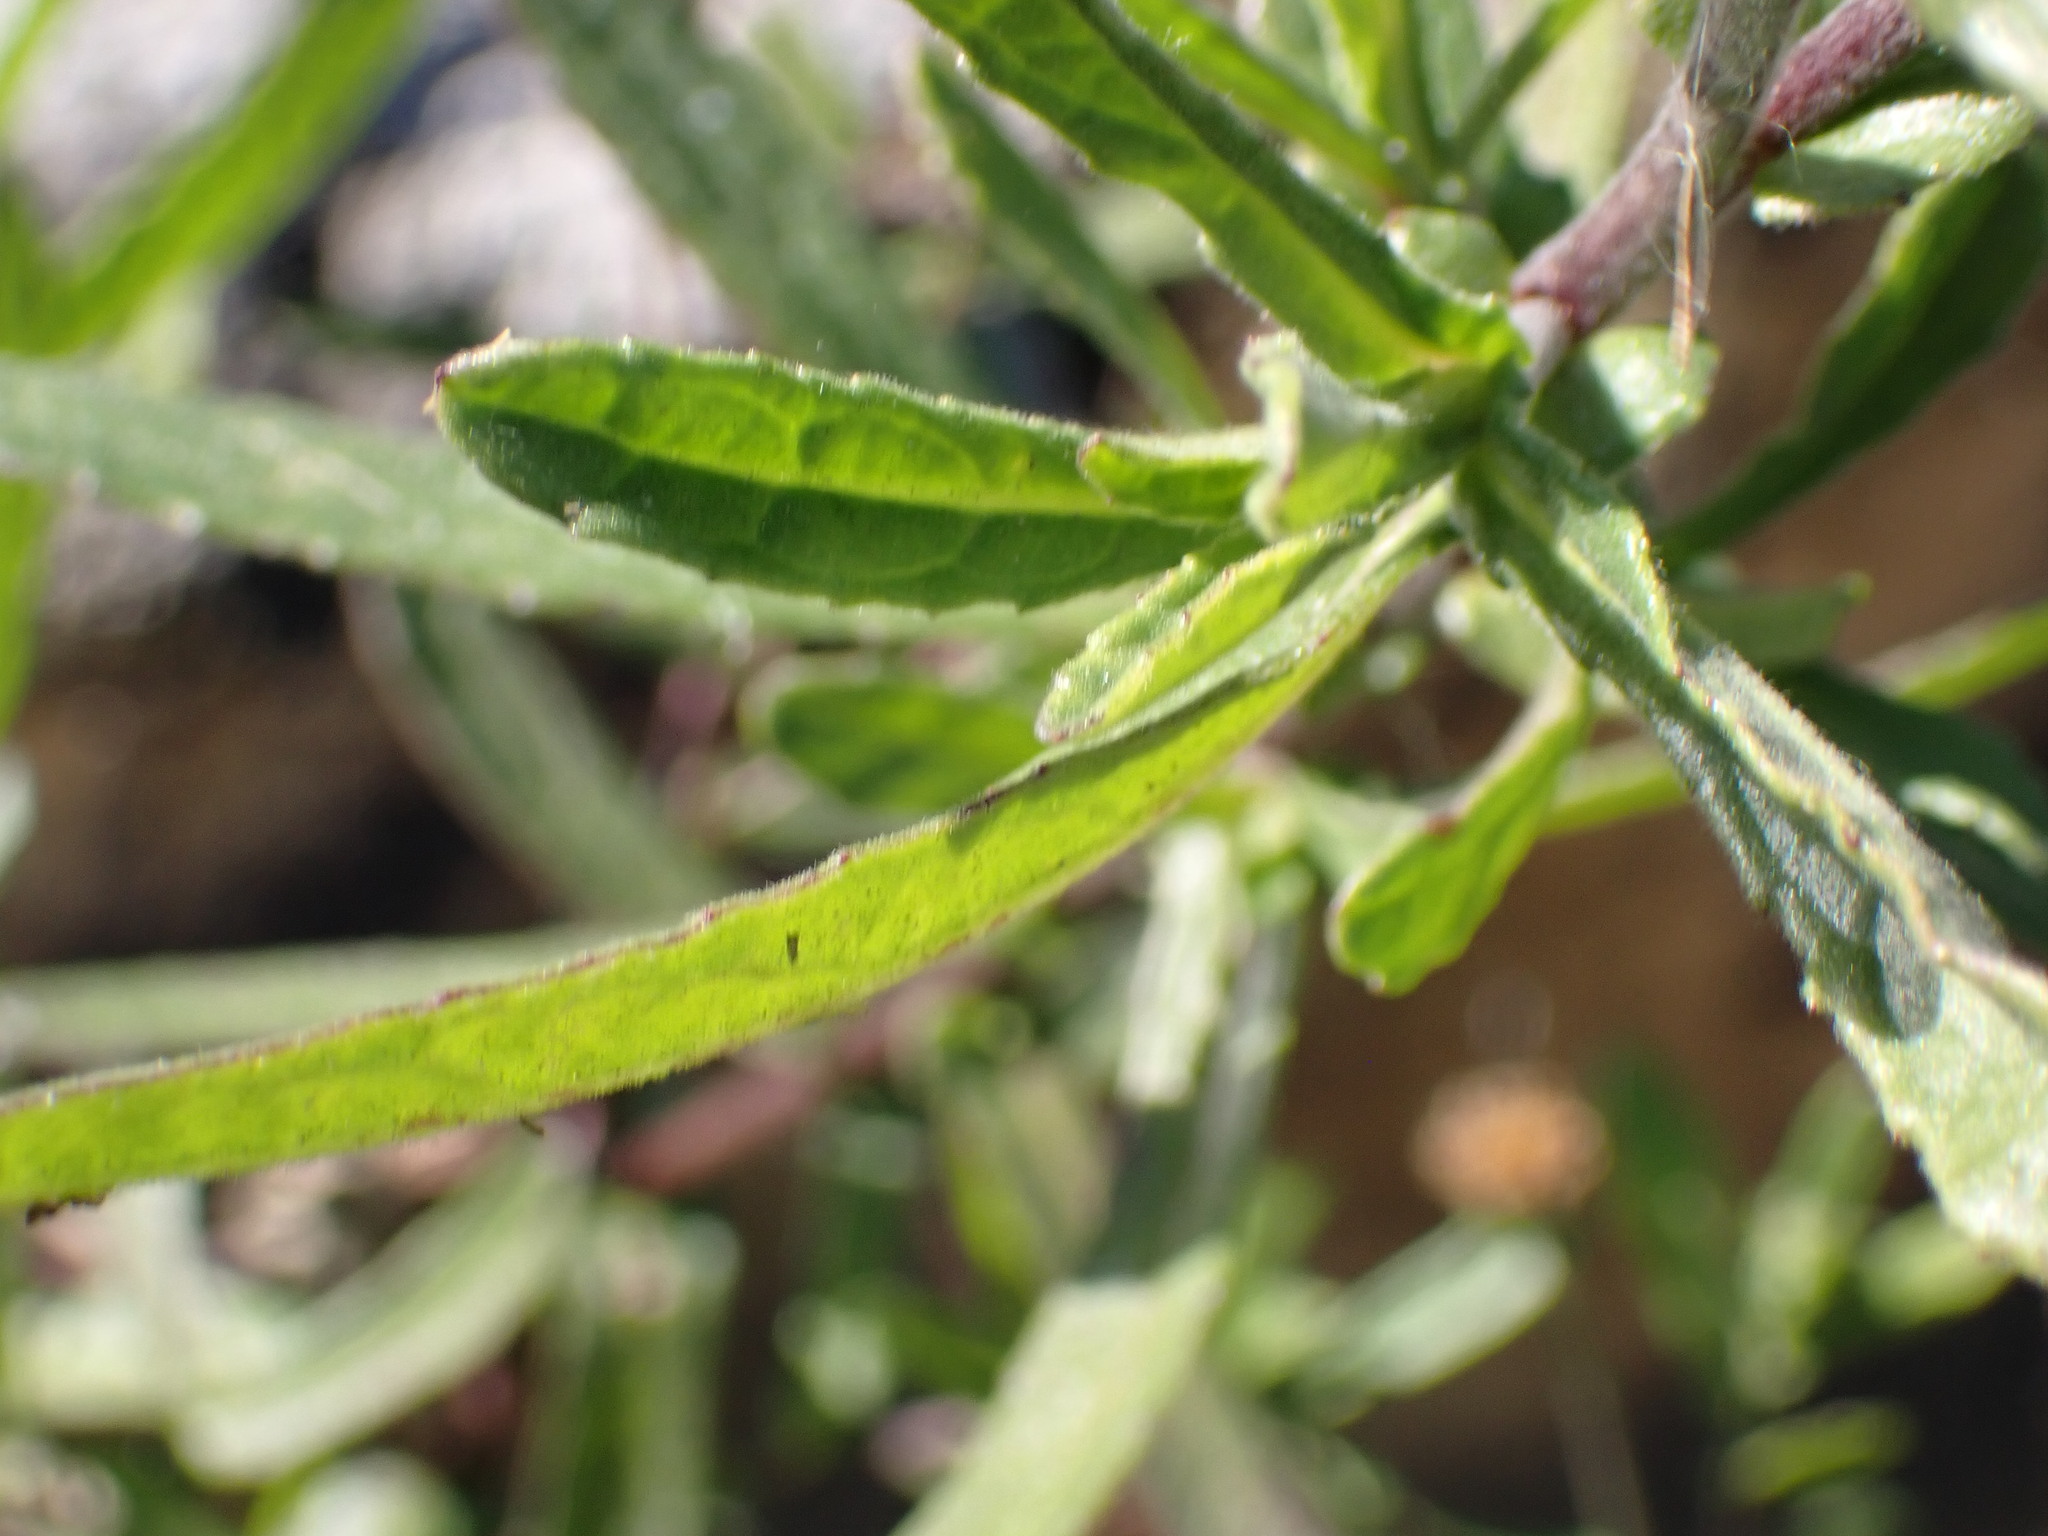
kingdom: Plantae
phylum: Tracheophyta
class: Magnoliopsida
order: Asterales
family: Asteraceae
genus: Pulicaria
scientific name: Pulicaria paludosa
